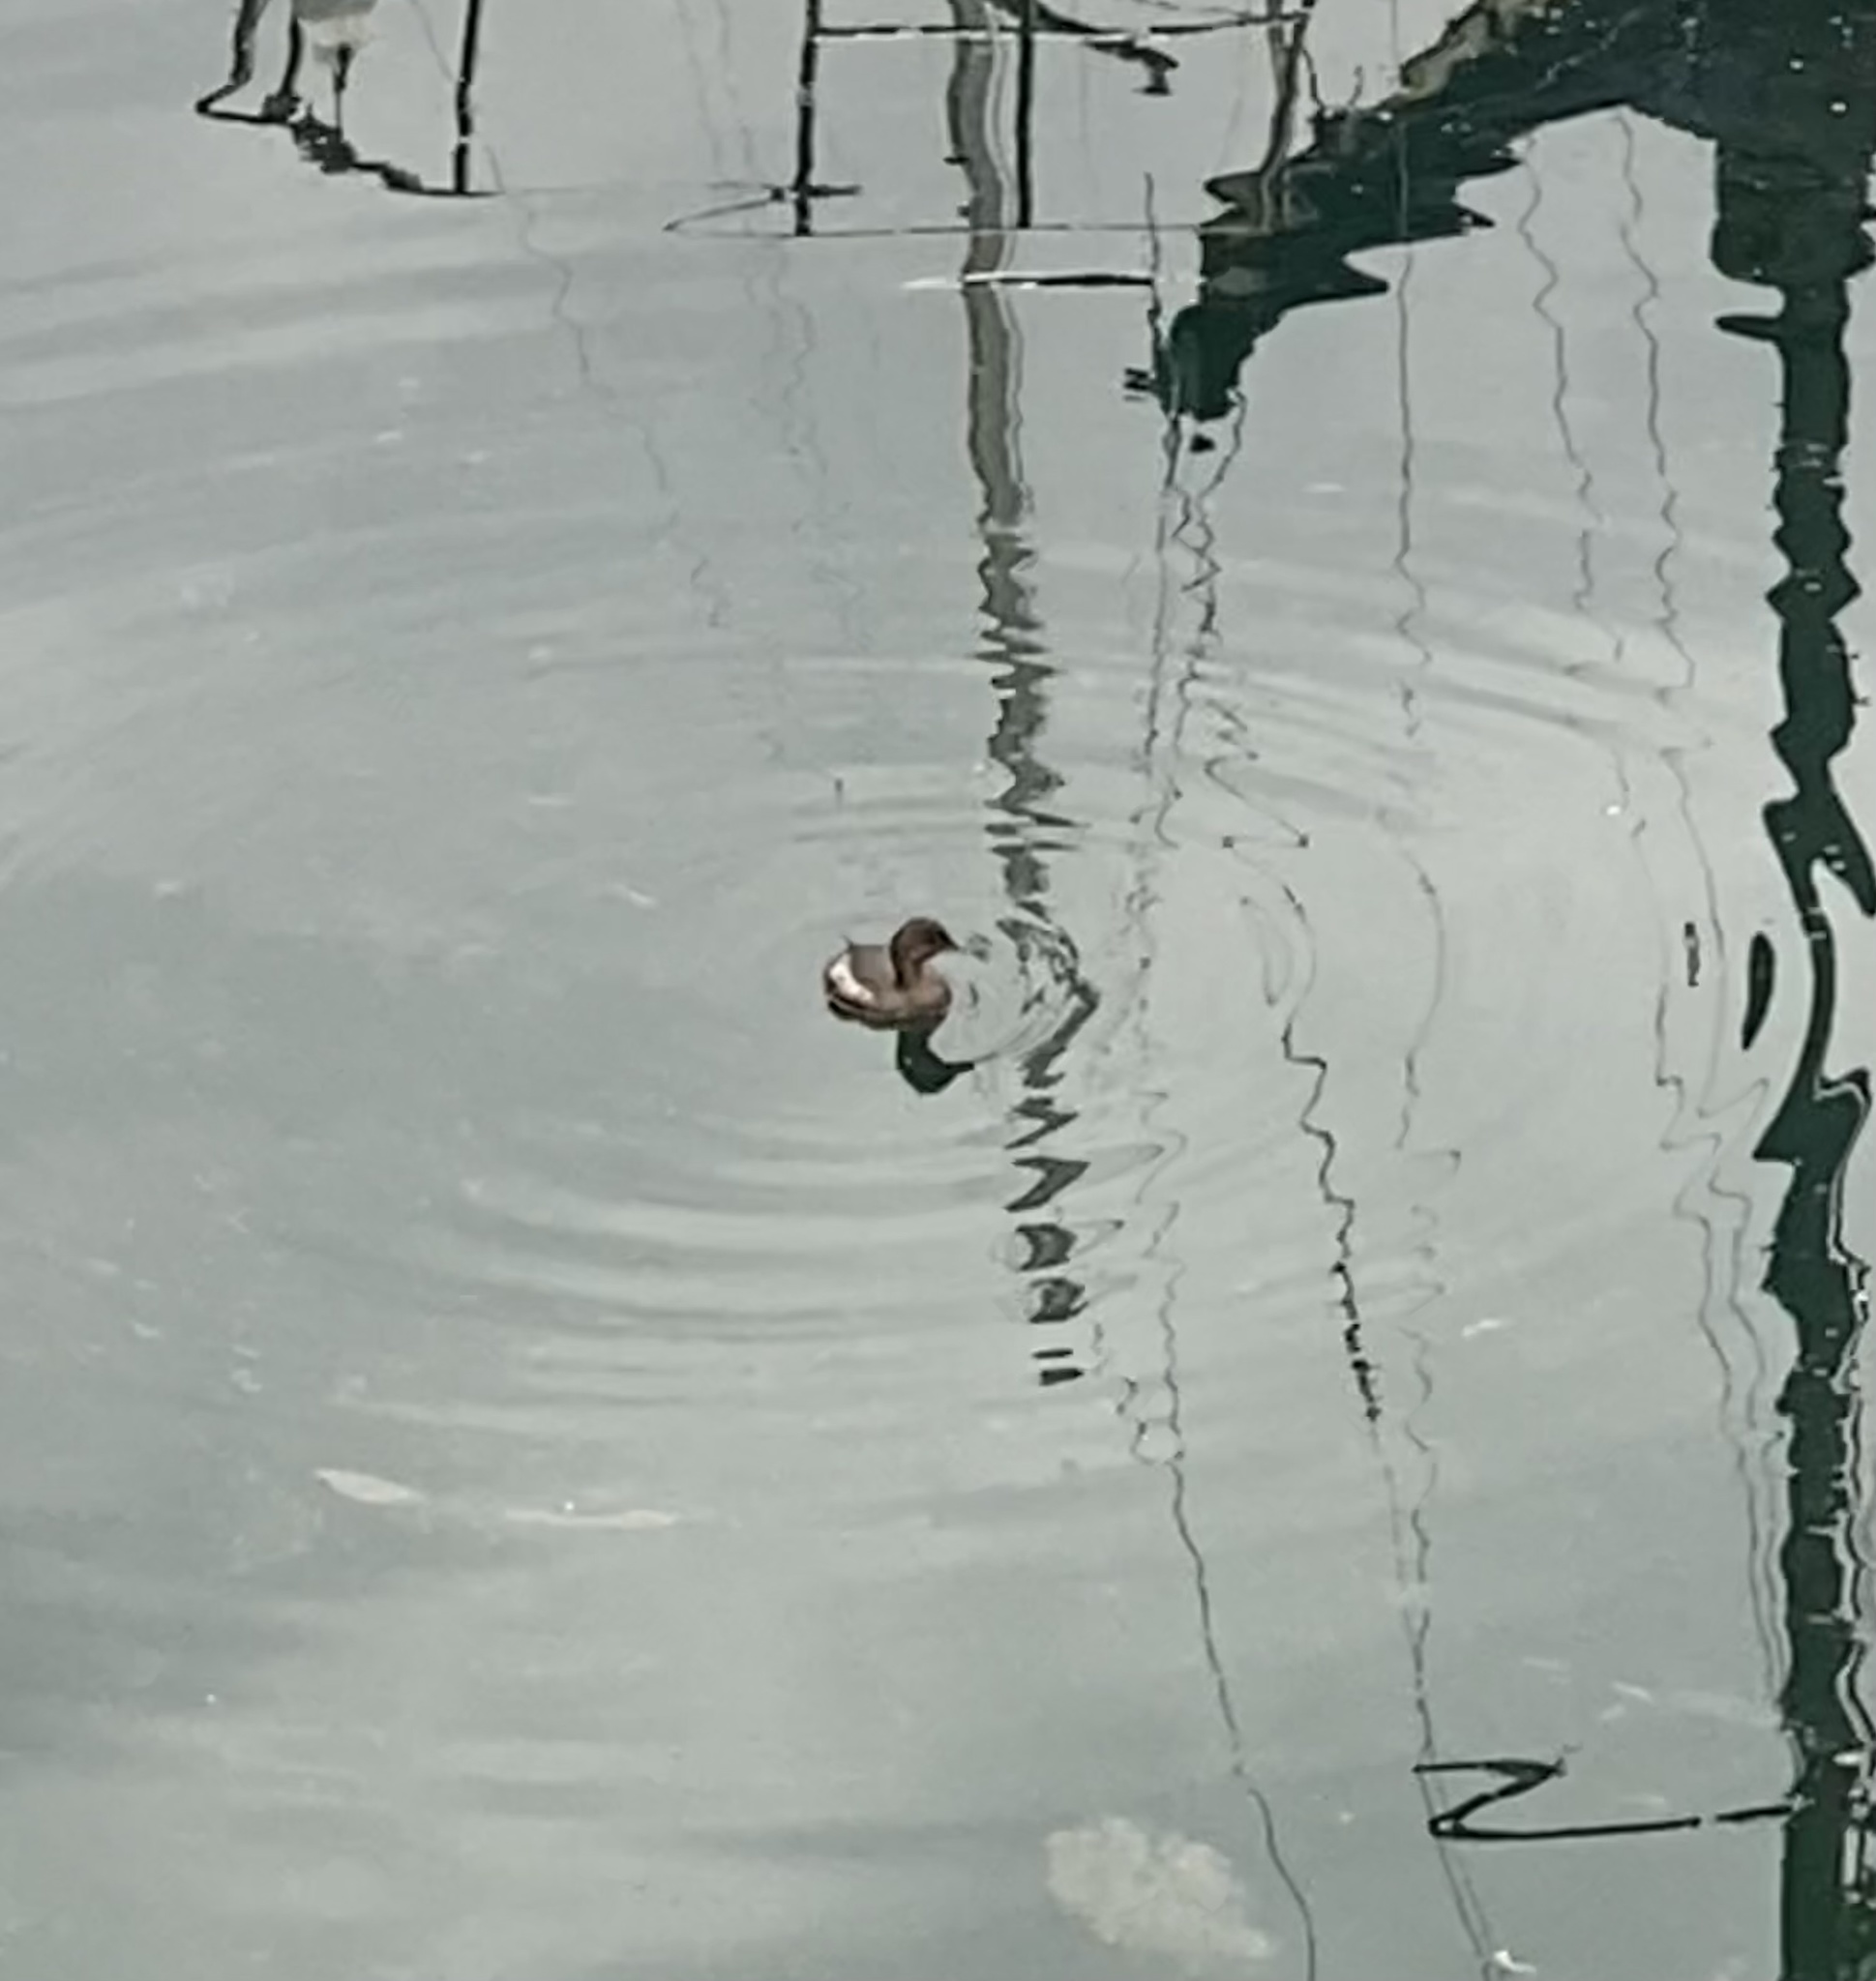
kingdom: Animalia
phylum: Chordata
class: Aves
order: Podicipediformes
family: Podicipedidae
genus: Podilymbus
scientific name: Podilymbus podiceps
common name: Pied-billed grebe
